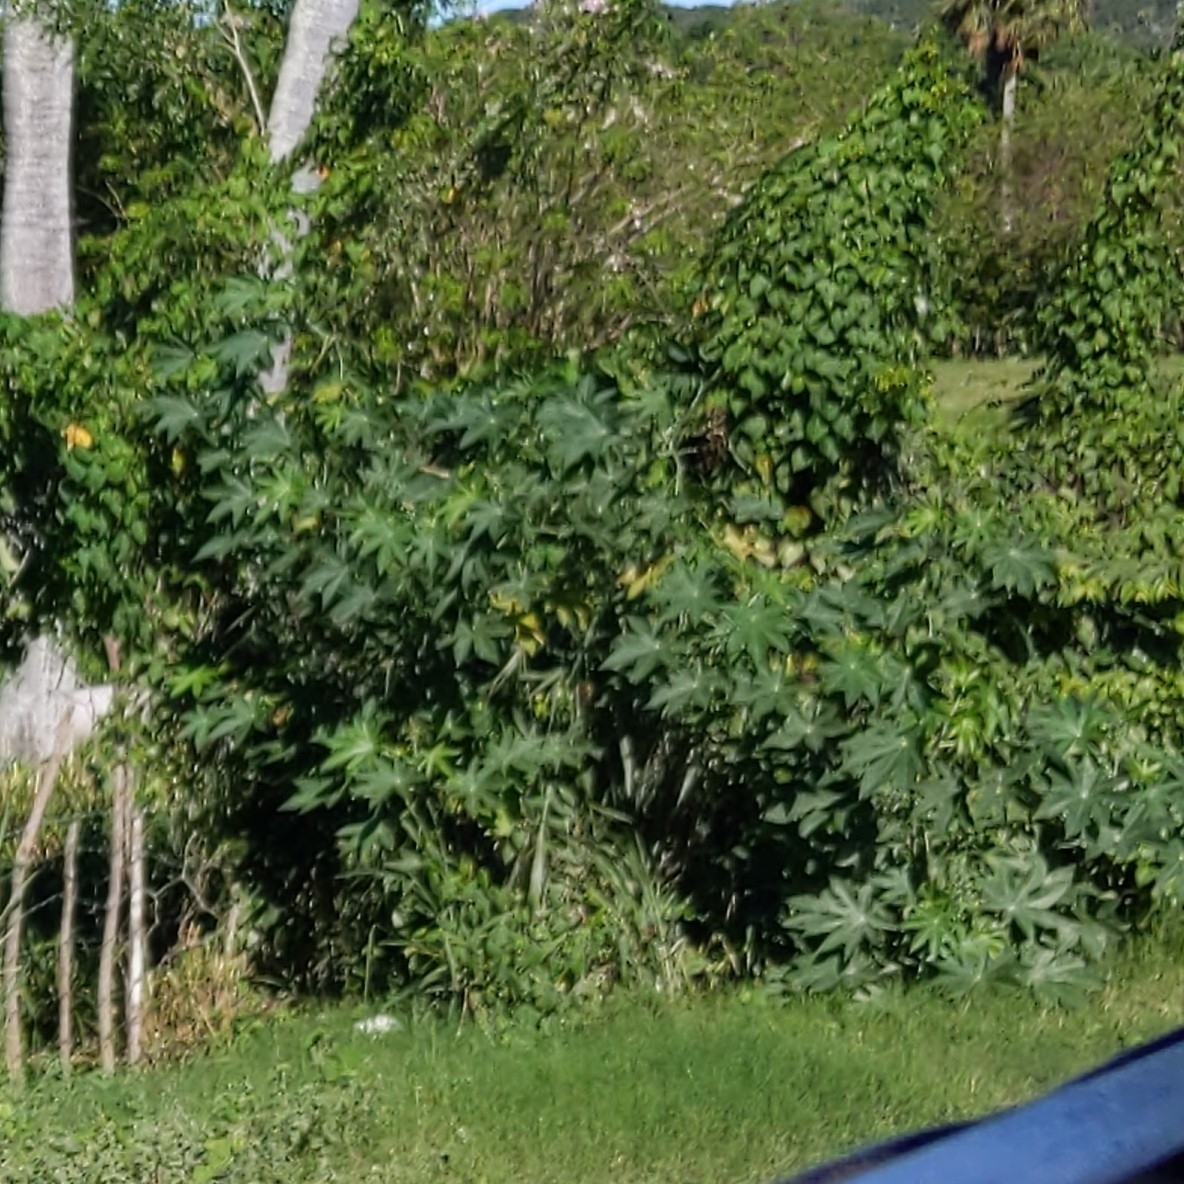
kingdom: Plantae
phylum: Tracheophyta
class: Magnoliopsida
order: Malpighiales
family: Euphorbiaceae
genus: Ricinus
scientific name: Ricinus communis
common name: Castor-oil-plant
